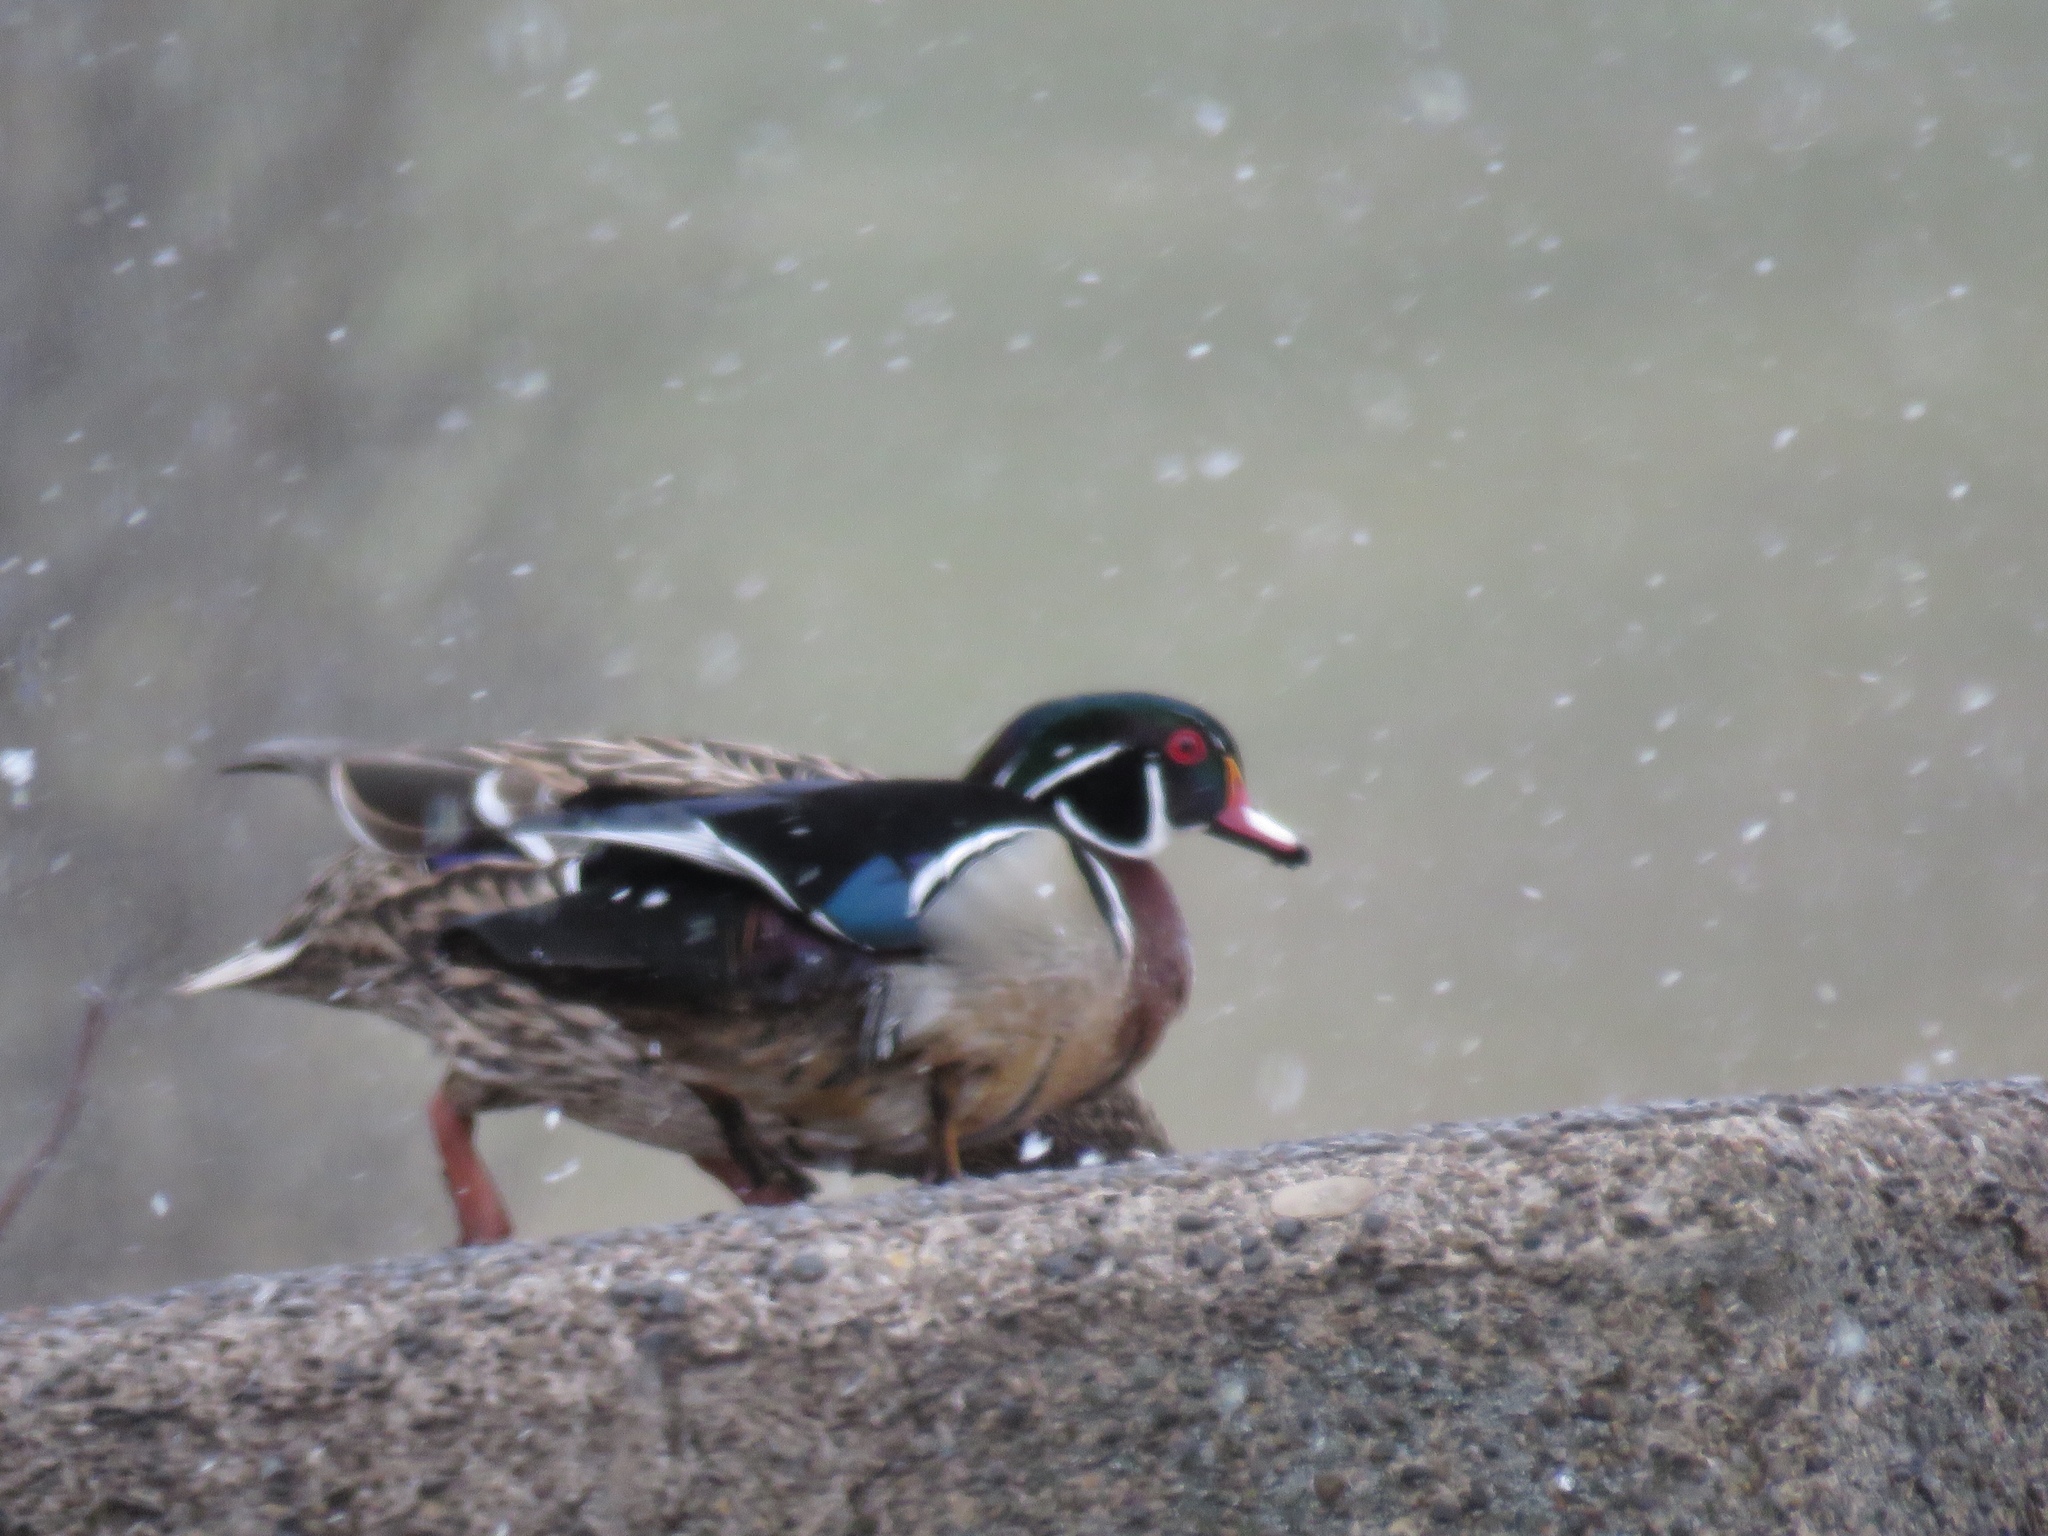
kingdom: Animalia
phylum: Chordata
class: Aves
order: Anseriformes
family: Anatidae
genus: Aix
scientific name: Aix sponsa
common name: Wood duck
